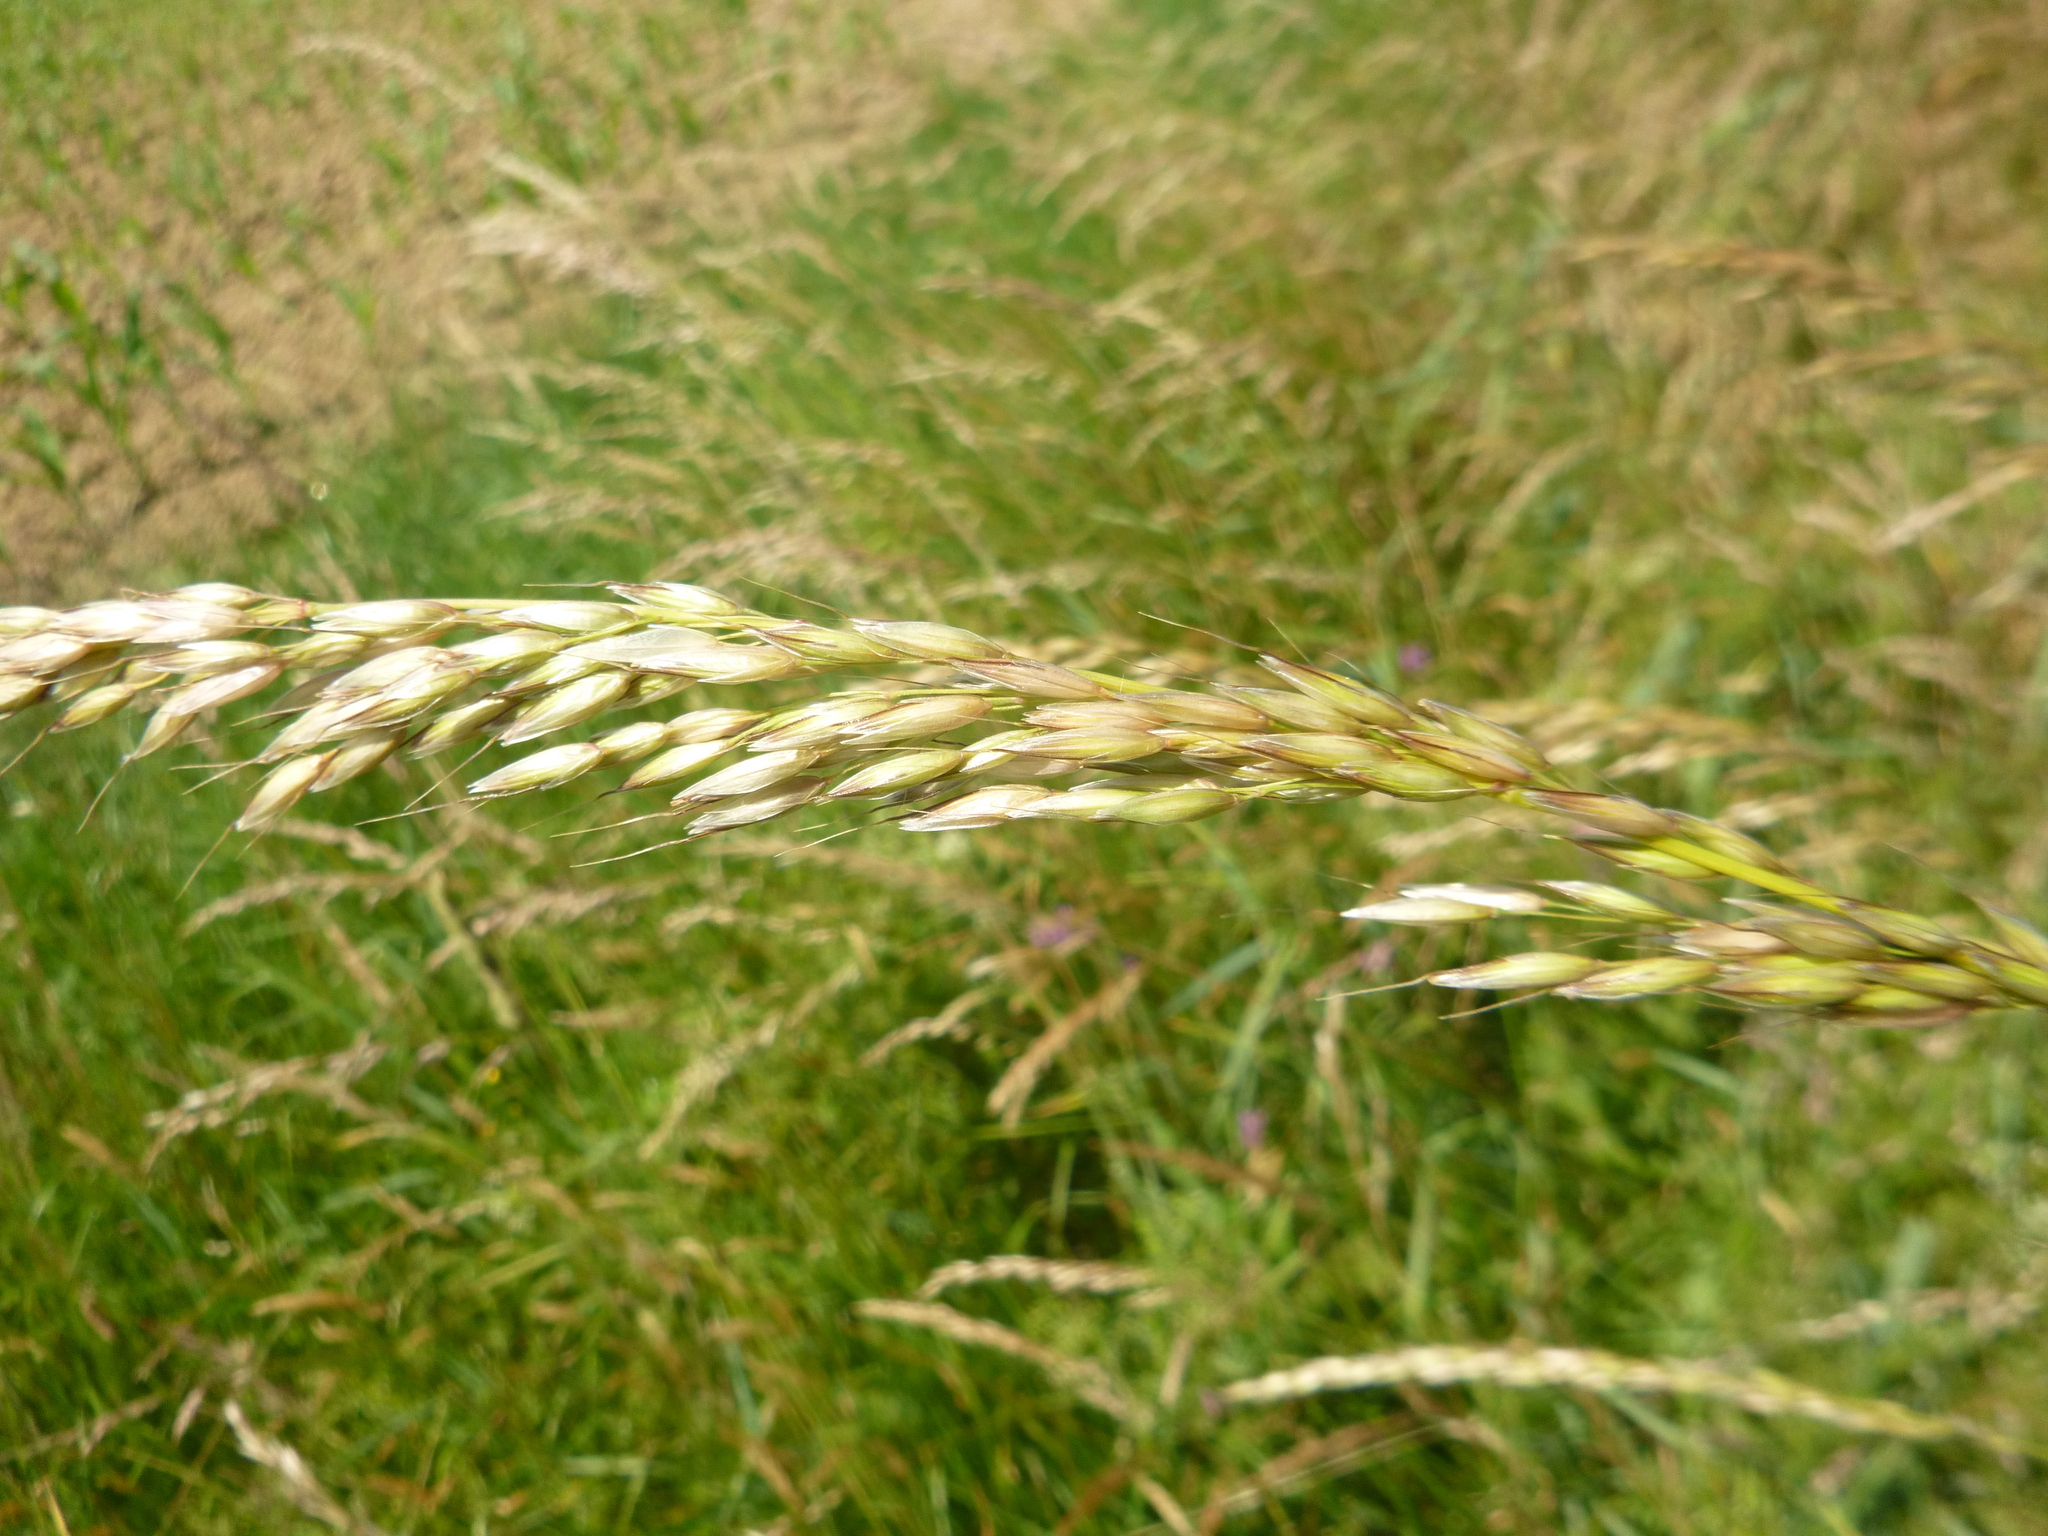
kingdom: Plantae
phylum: Tracheophyta
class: Liliopsida
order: Poales
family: Poaceae
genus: Arrhenatherum
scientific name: Arrhenatherum elatius
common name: Tall oatgrass
